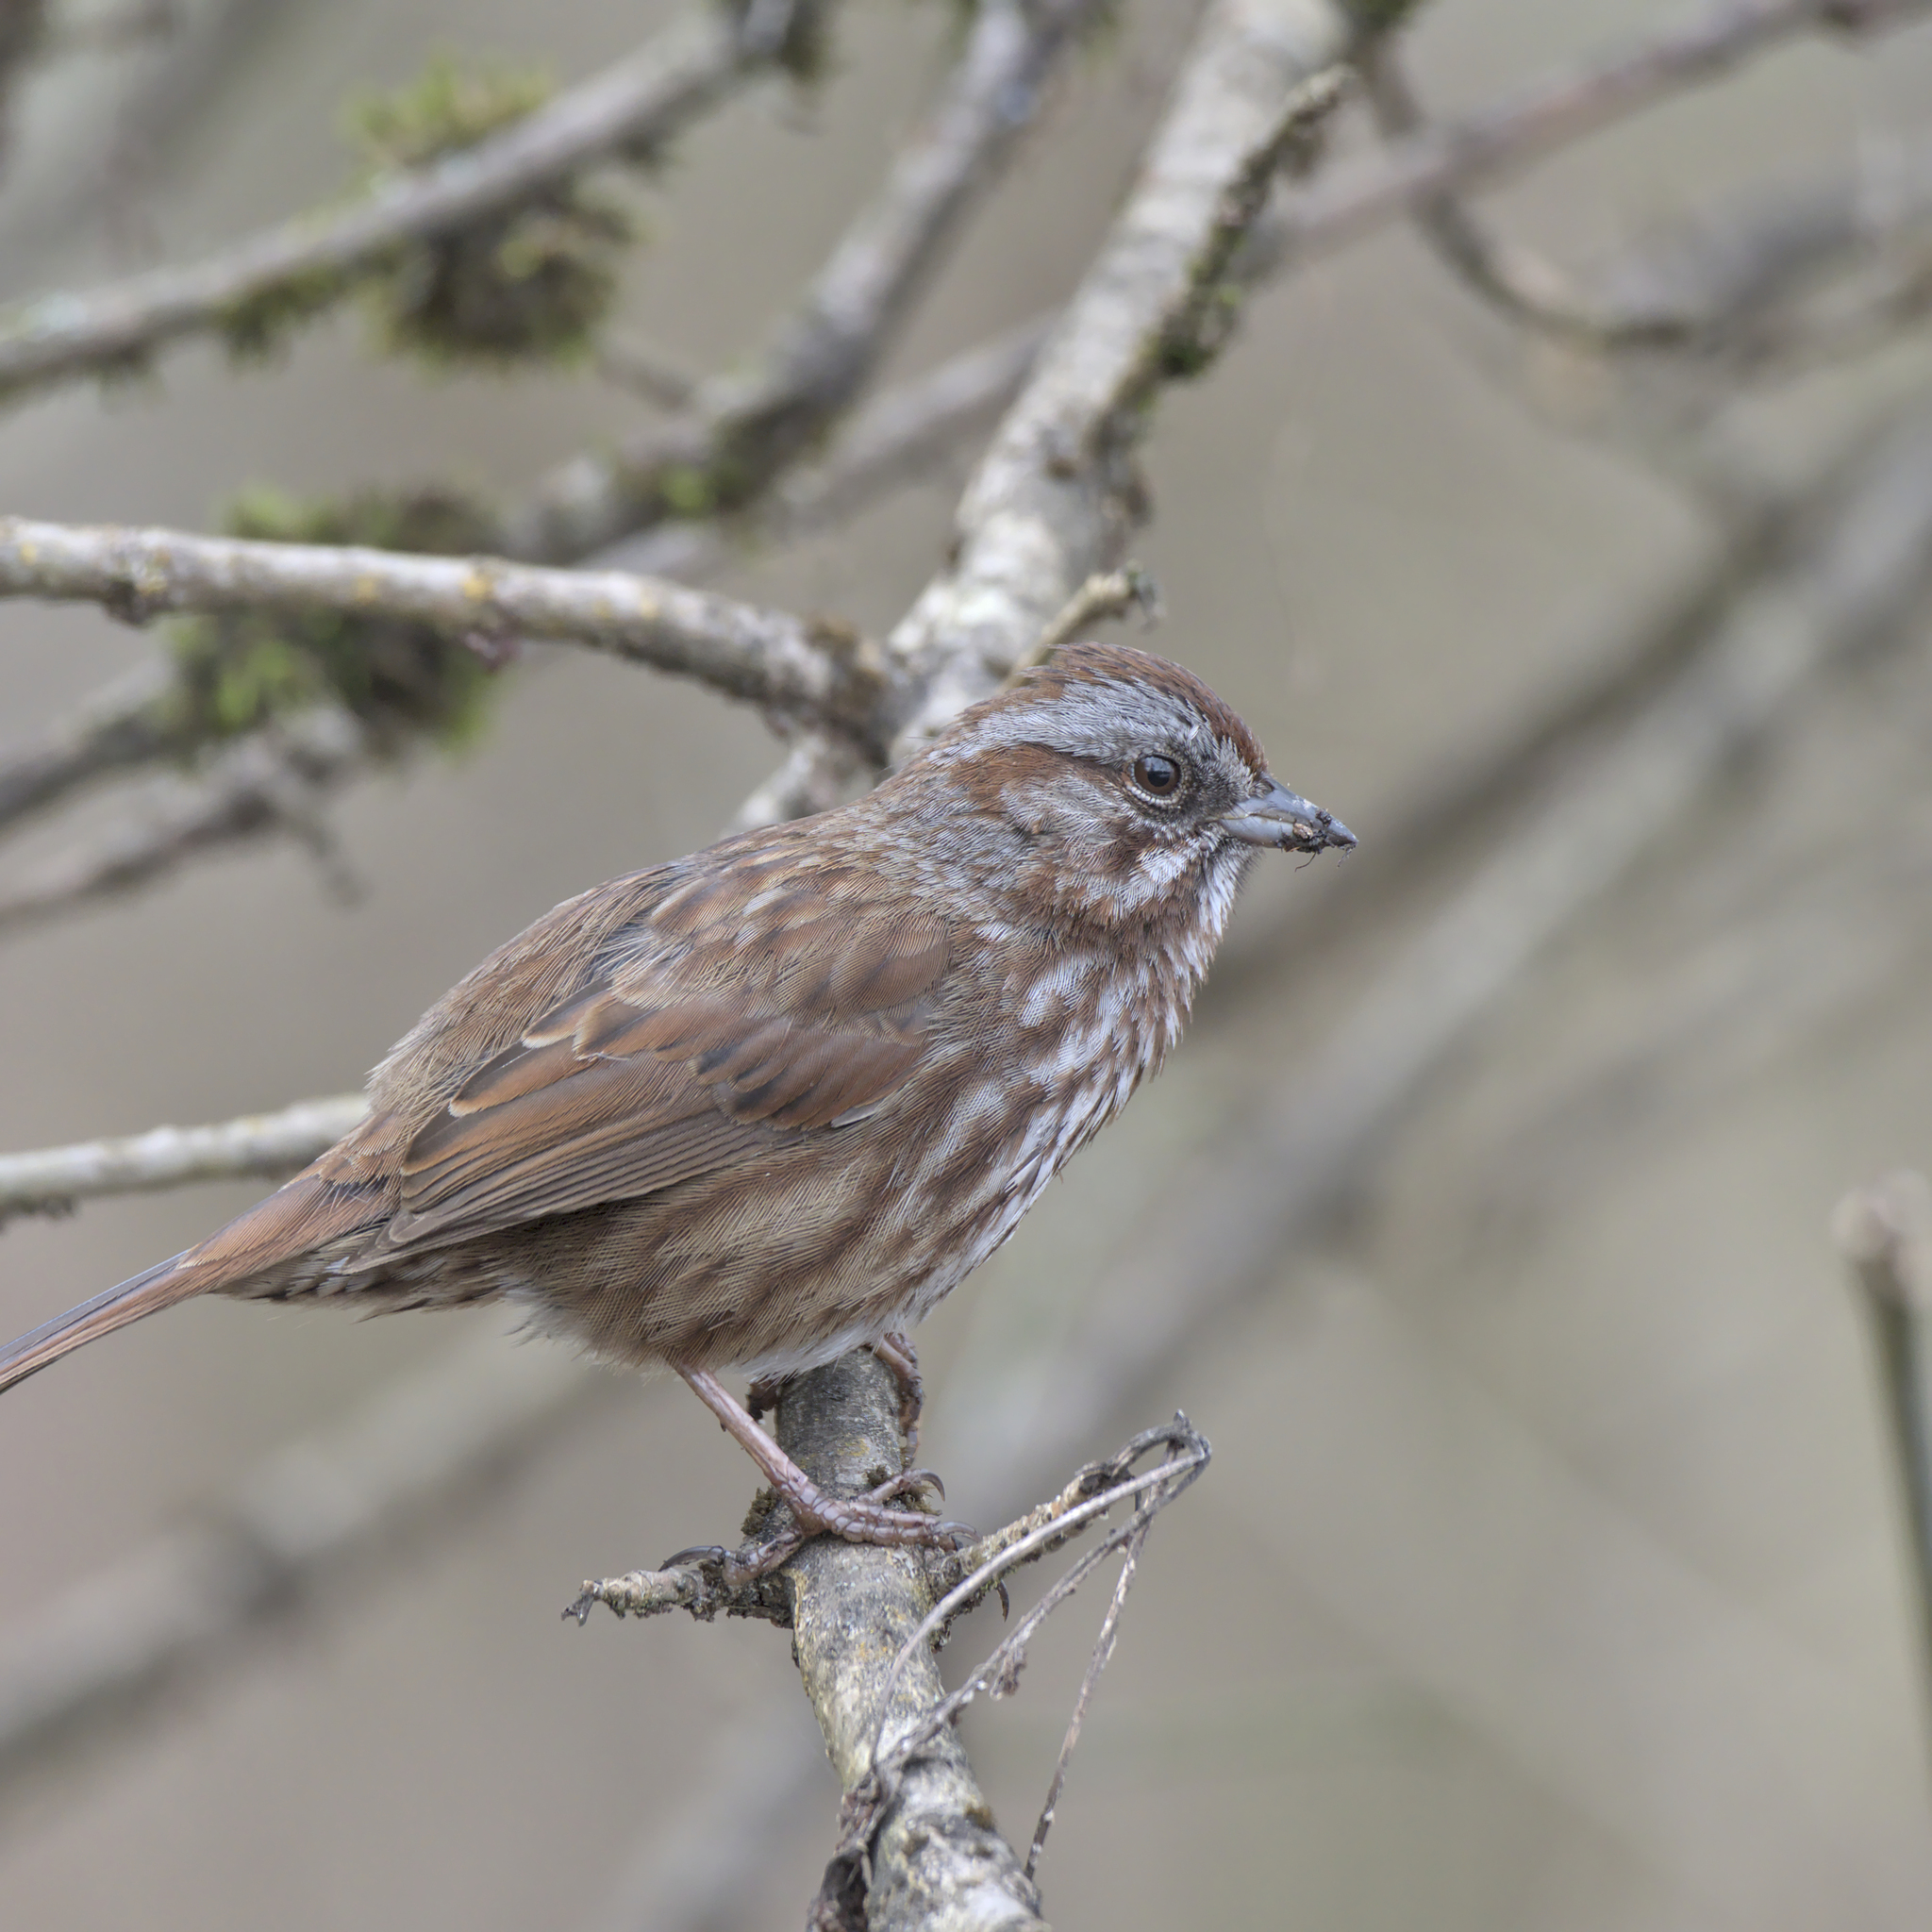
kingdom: Animalia
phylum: Chordata
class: Aves
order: Passeriformes
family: Passerellidae
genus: Melospiza
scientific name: Melospiza melodia
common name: Song sparrow
